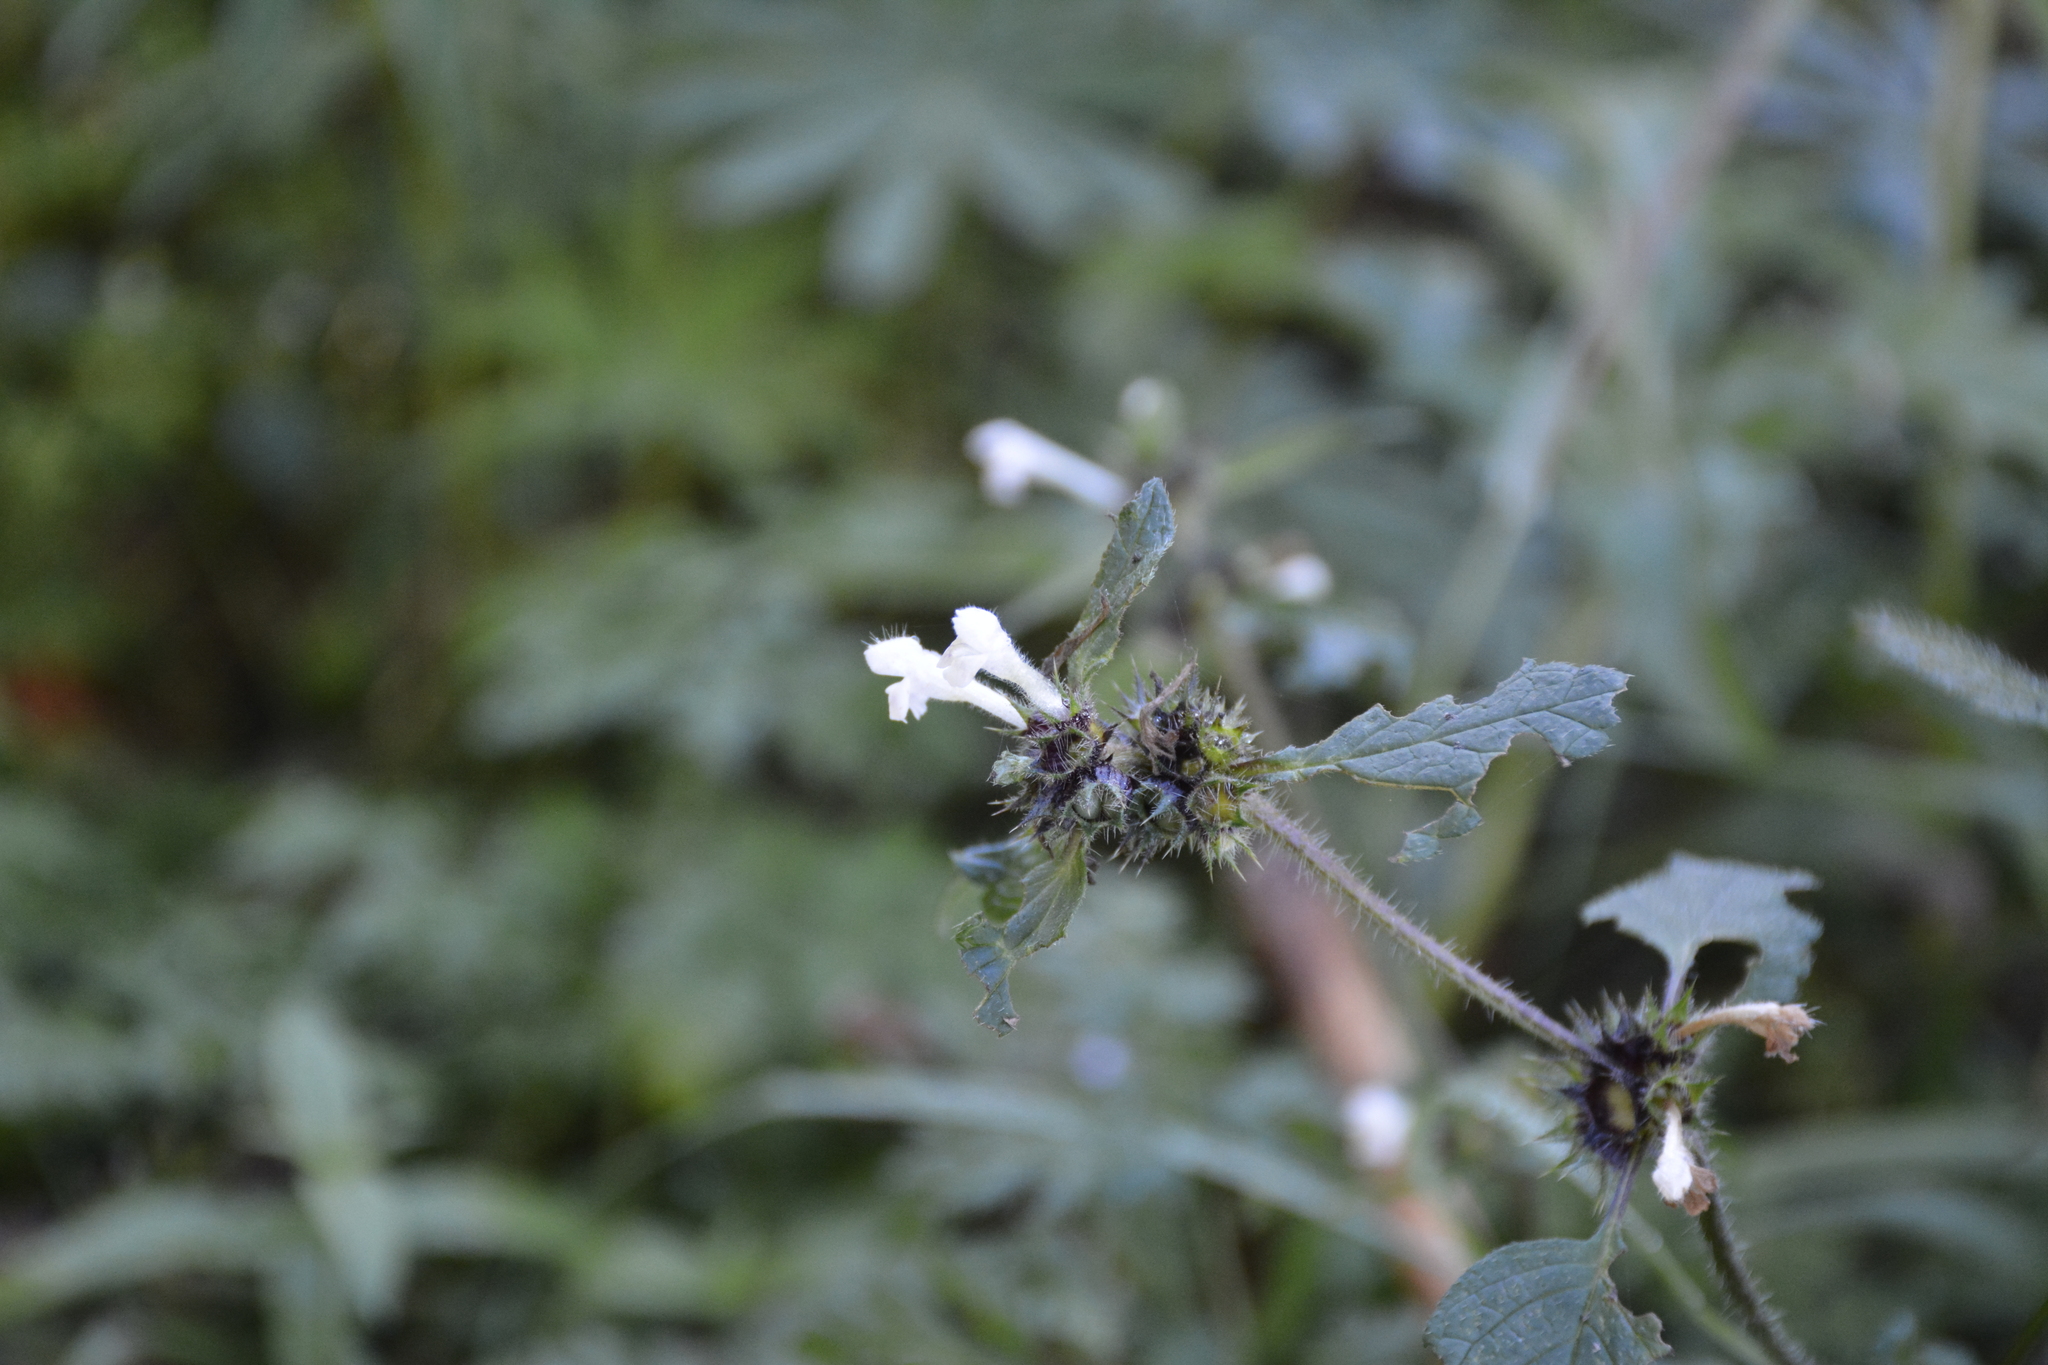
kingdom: Plantae
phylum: Tracheophyta
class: Magnoliopsida
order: Lamiales
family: Lamiaceae
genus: Galeopsis
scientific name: Galeopsis tetrahit
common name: Common hemp-nettle
